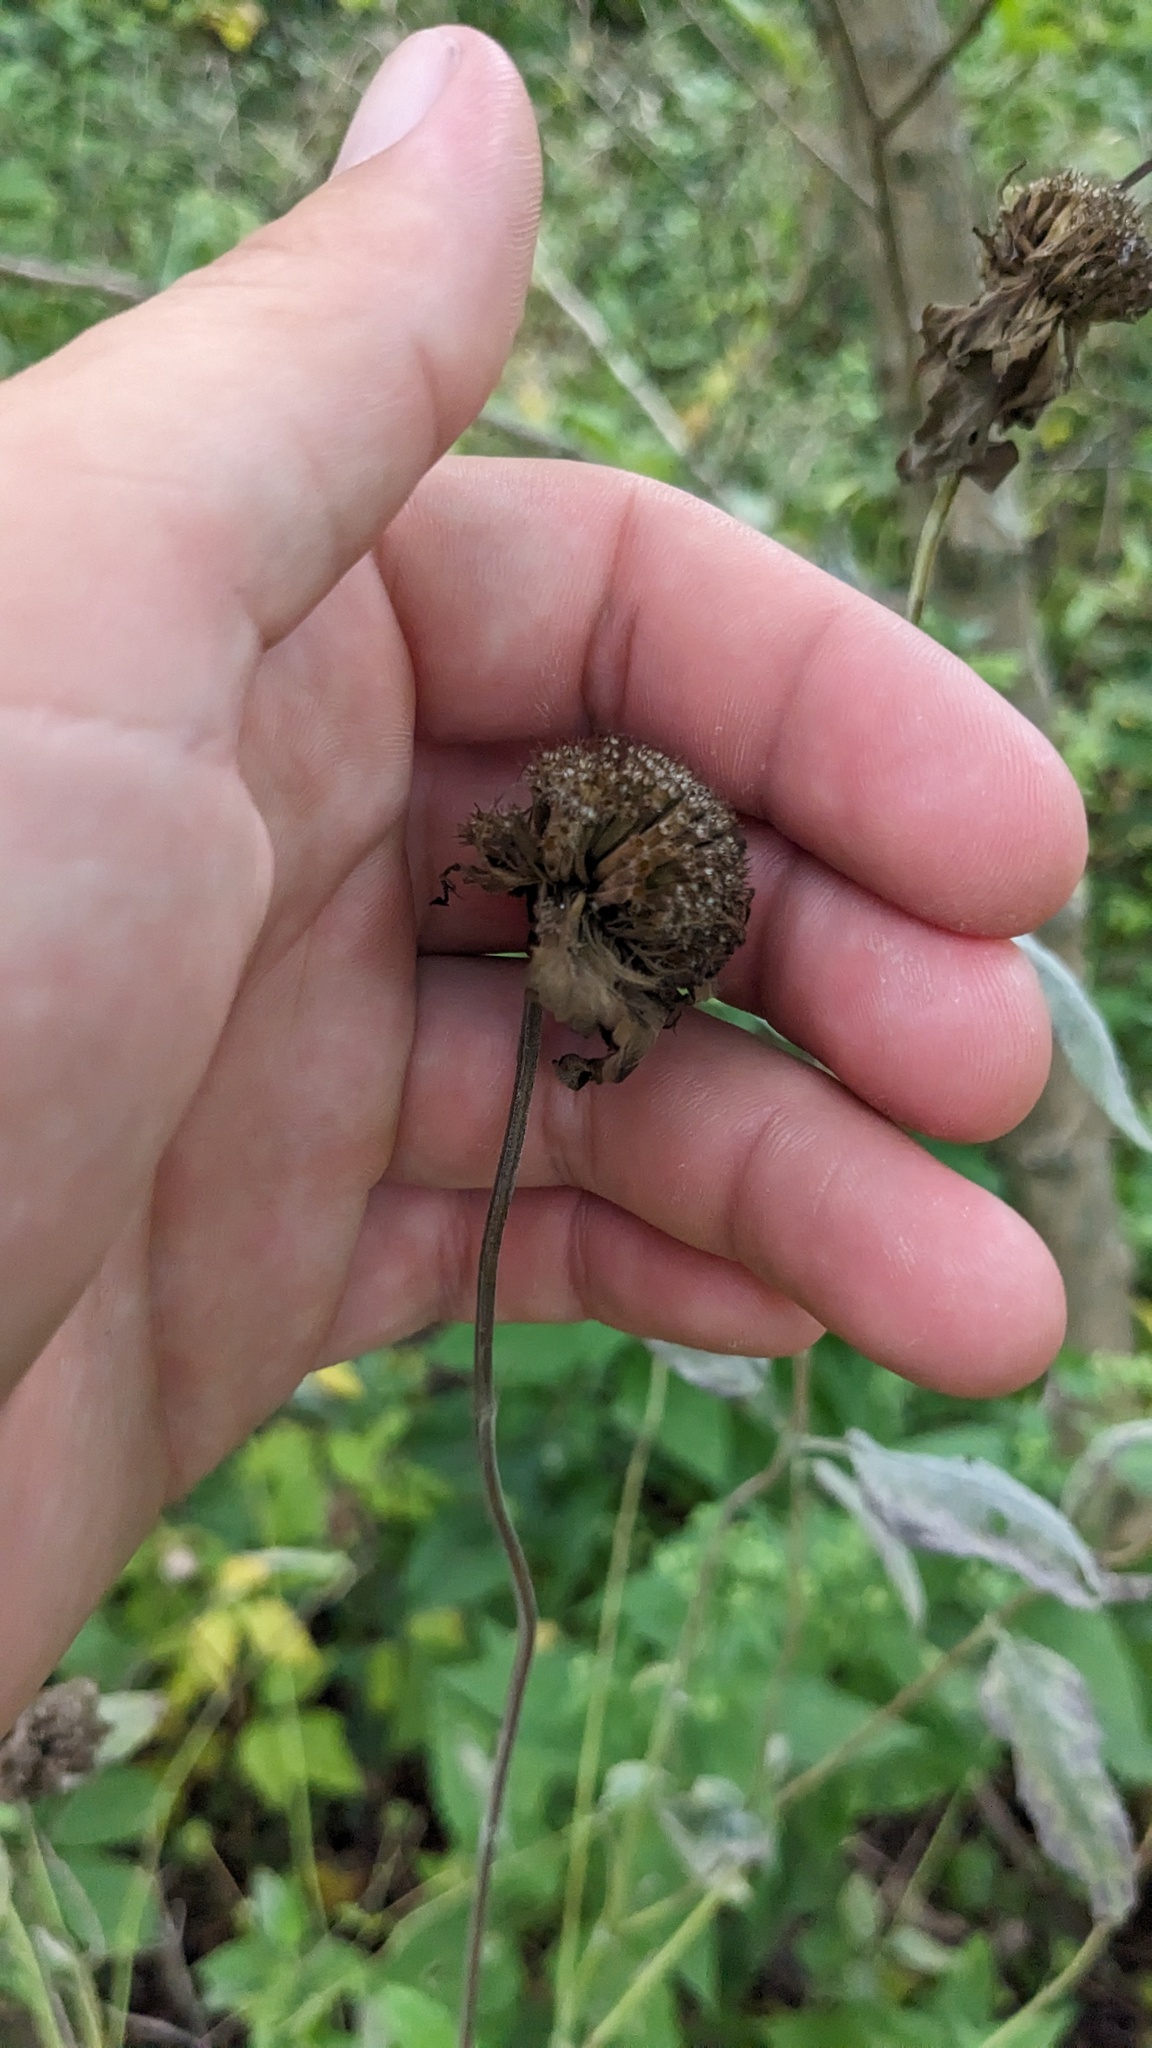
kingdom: Plantae
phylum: Tracheophyta
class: Magnoliopsida
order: Lamiales
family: Lamiaceae
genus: Monarda
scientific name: Monarda fistulosa
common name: Purple beebalm
